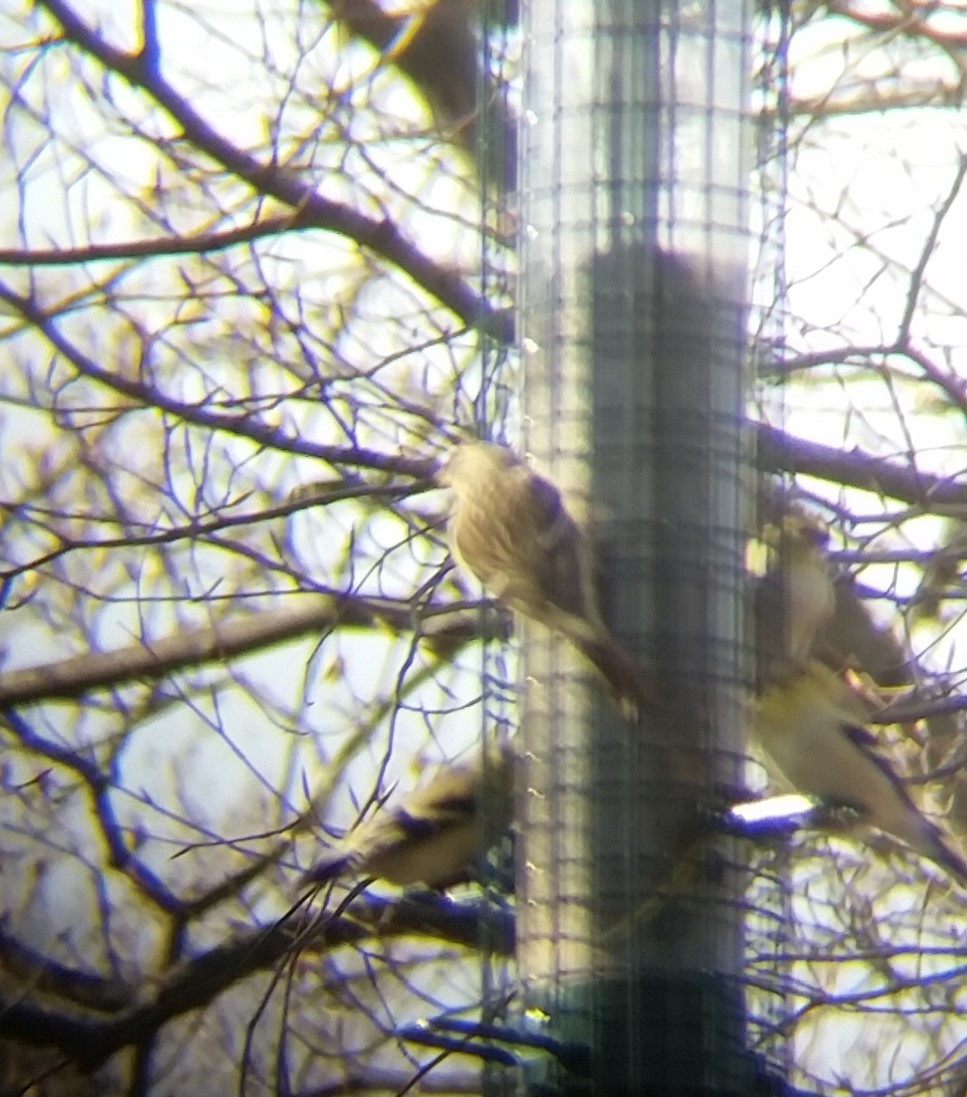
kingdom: Animalia
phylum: Chordata
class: Aves
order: Passeriformes
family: Fringillidae
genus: Acanthis
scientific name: Acanthis flammea
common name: Common redpoll
